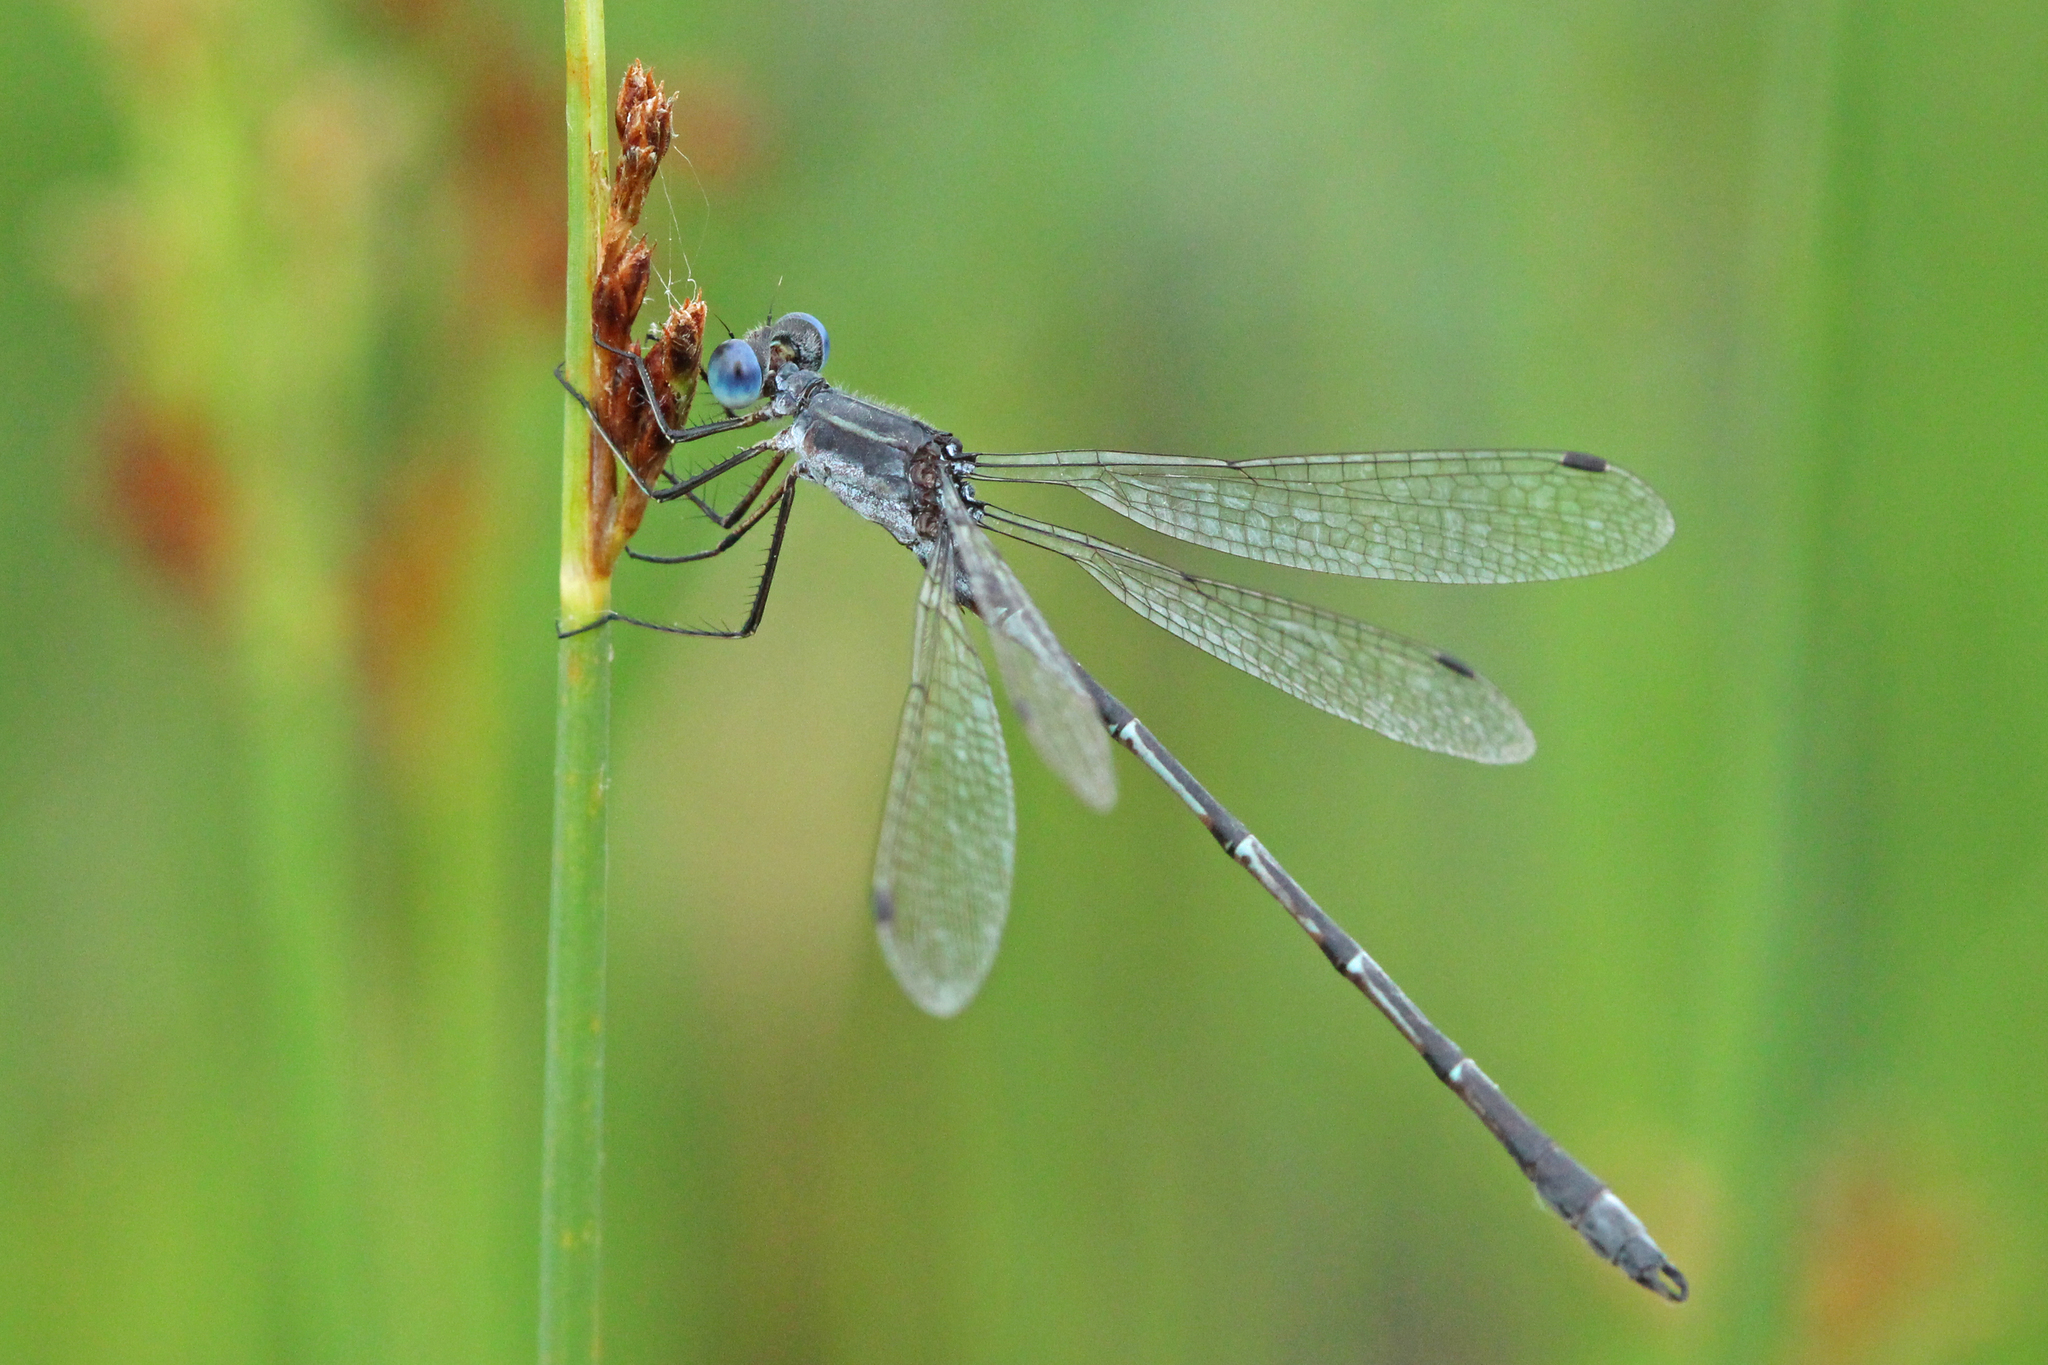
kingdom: Animalia
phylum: Arthropoda
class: Insecta
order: Odonata
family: Lestidae
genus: Lestes
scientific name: Lestes forcipatus
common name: Sweetflag spreadwing
